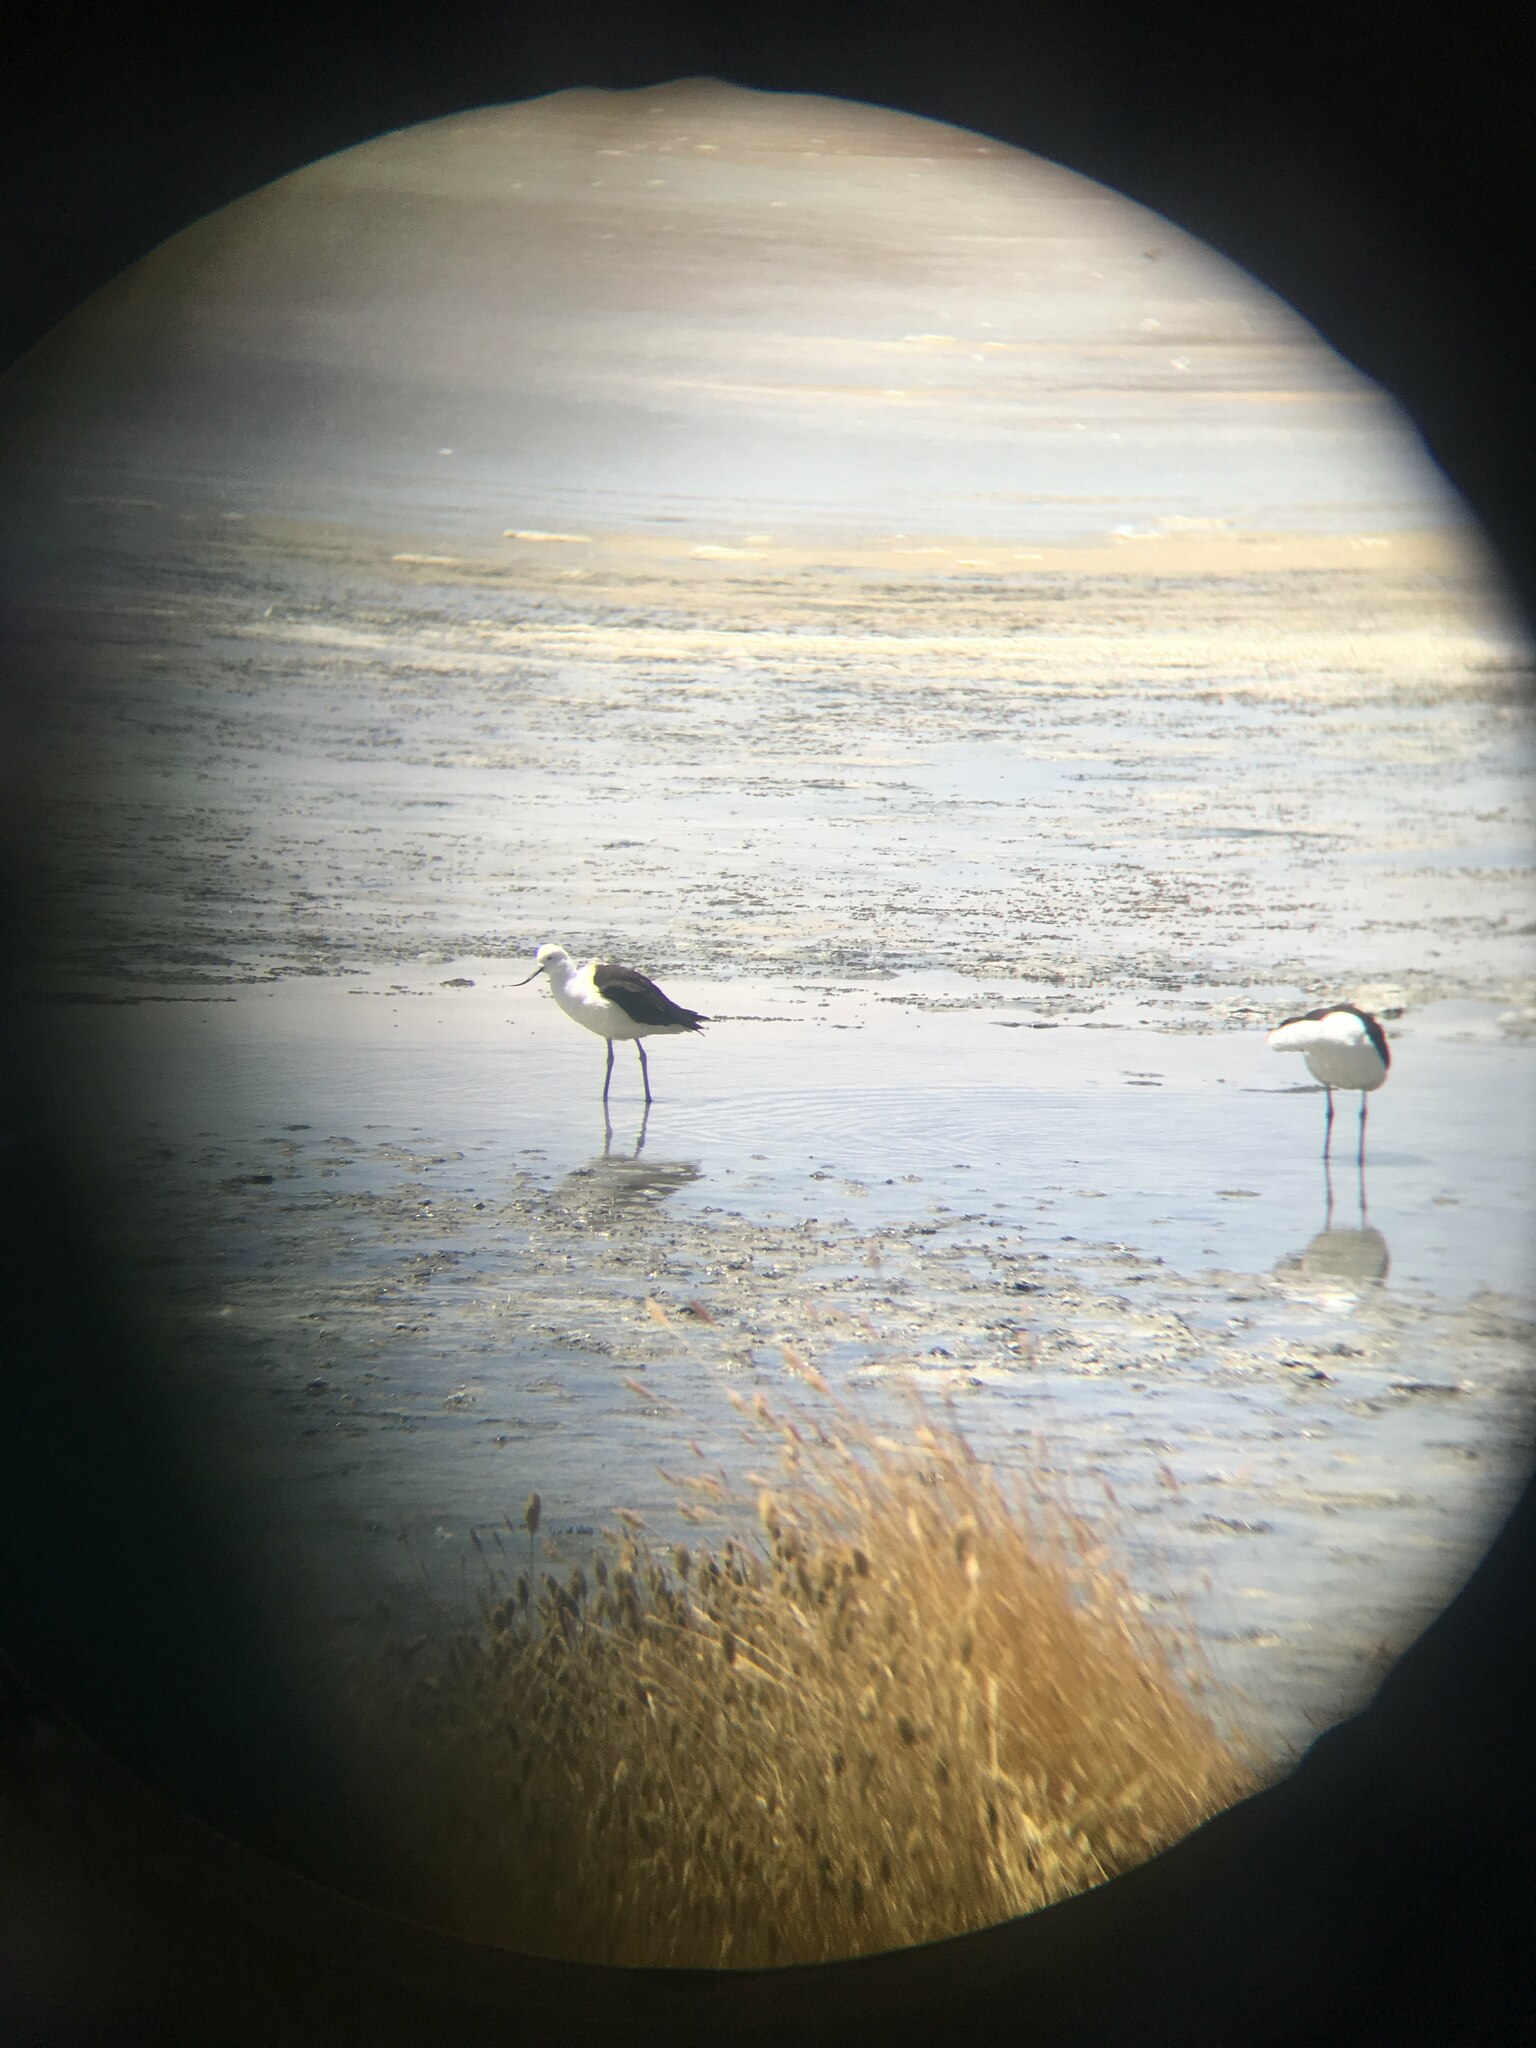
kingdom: Animalia
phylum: Chordata
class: Aves
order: Charadriiformes
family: Recurvirostridae
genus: Recurvirostra
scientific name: Recurvirostra andina
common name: Andean avocet
